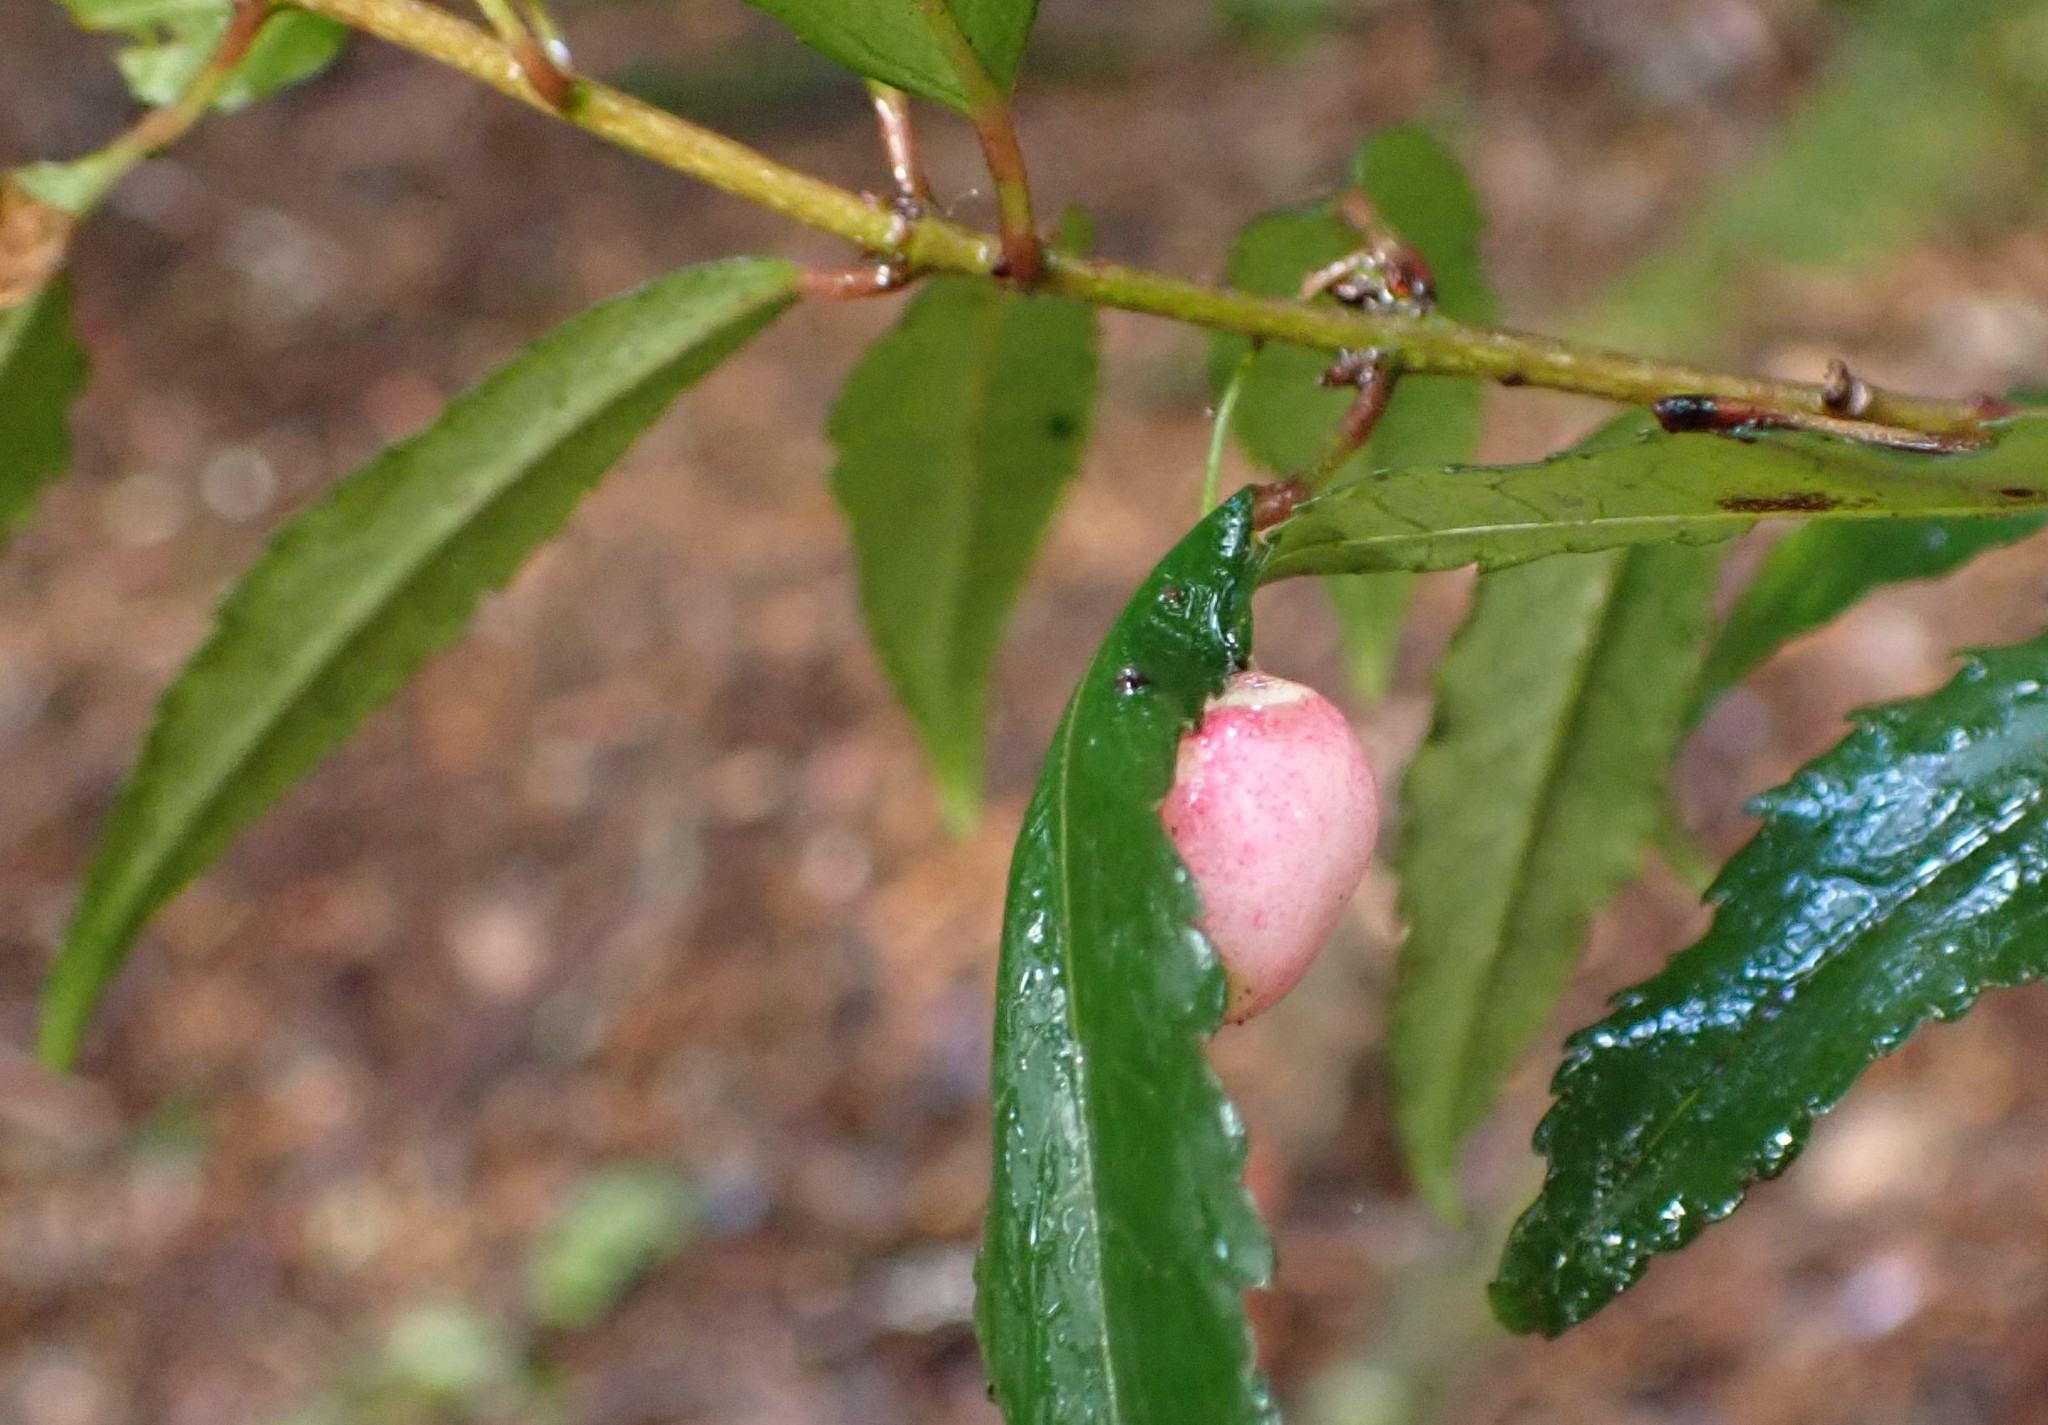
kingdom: Plantae
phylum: Tracheophyta
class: Magnoliopsida
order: Oxalidales
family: Elaeocarpaceae
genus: Aristotelia
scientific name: Aristotelia peduncularis
